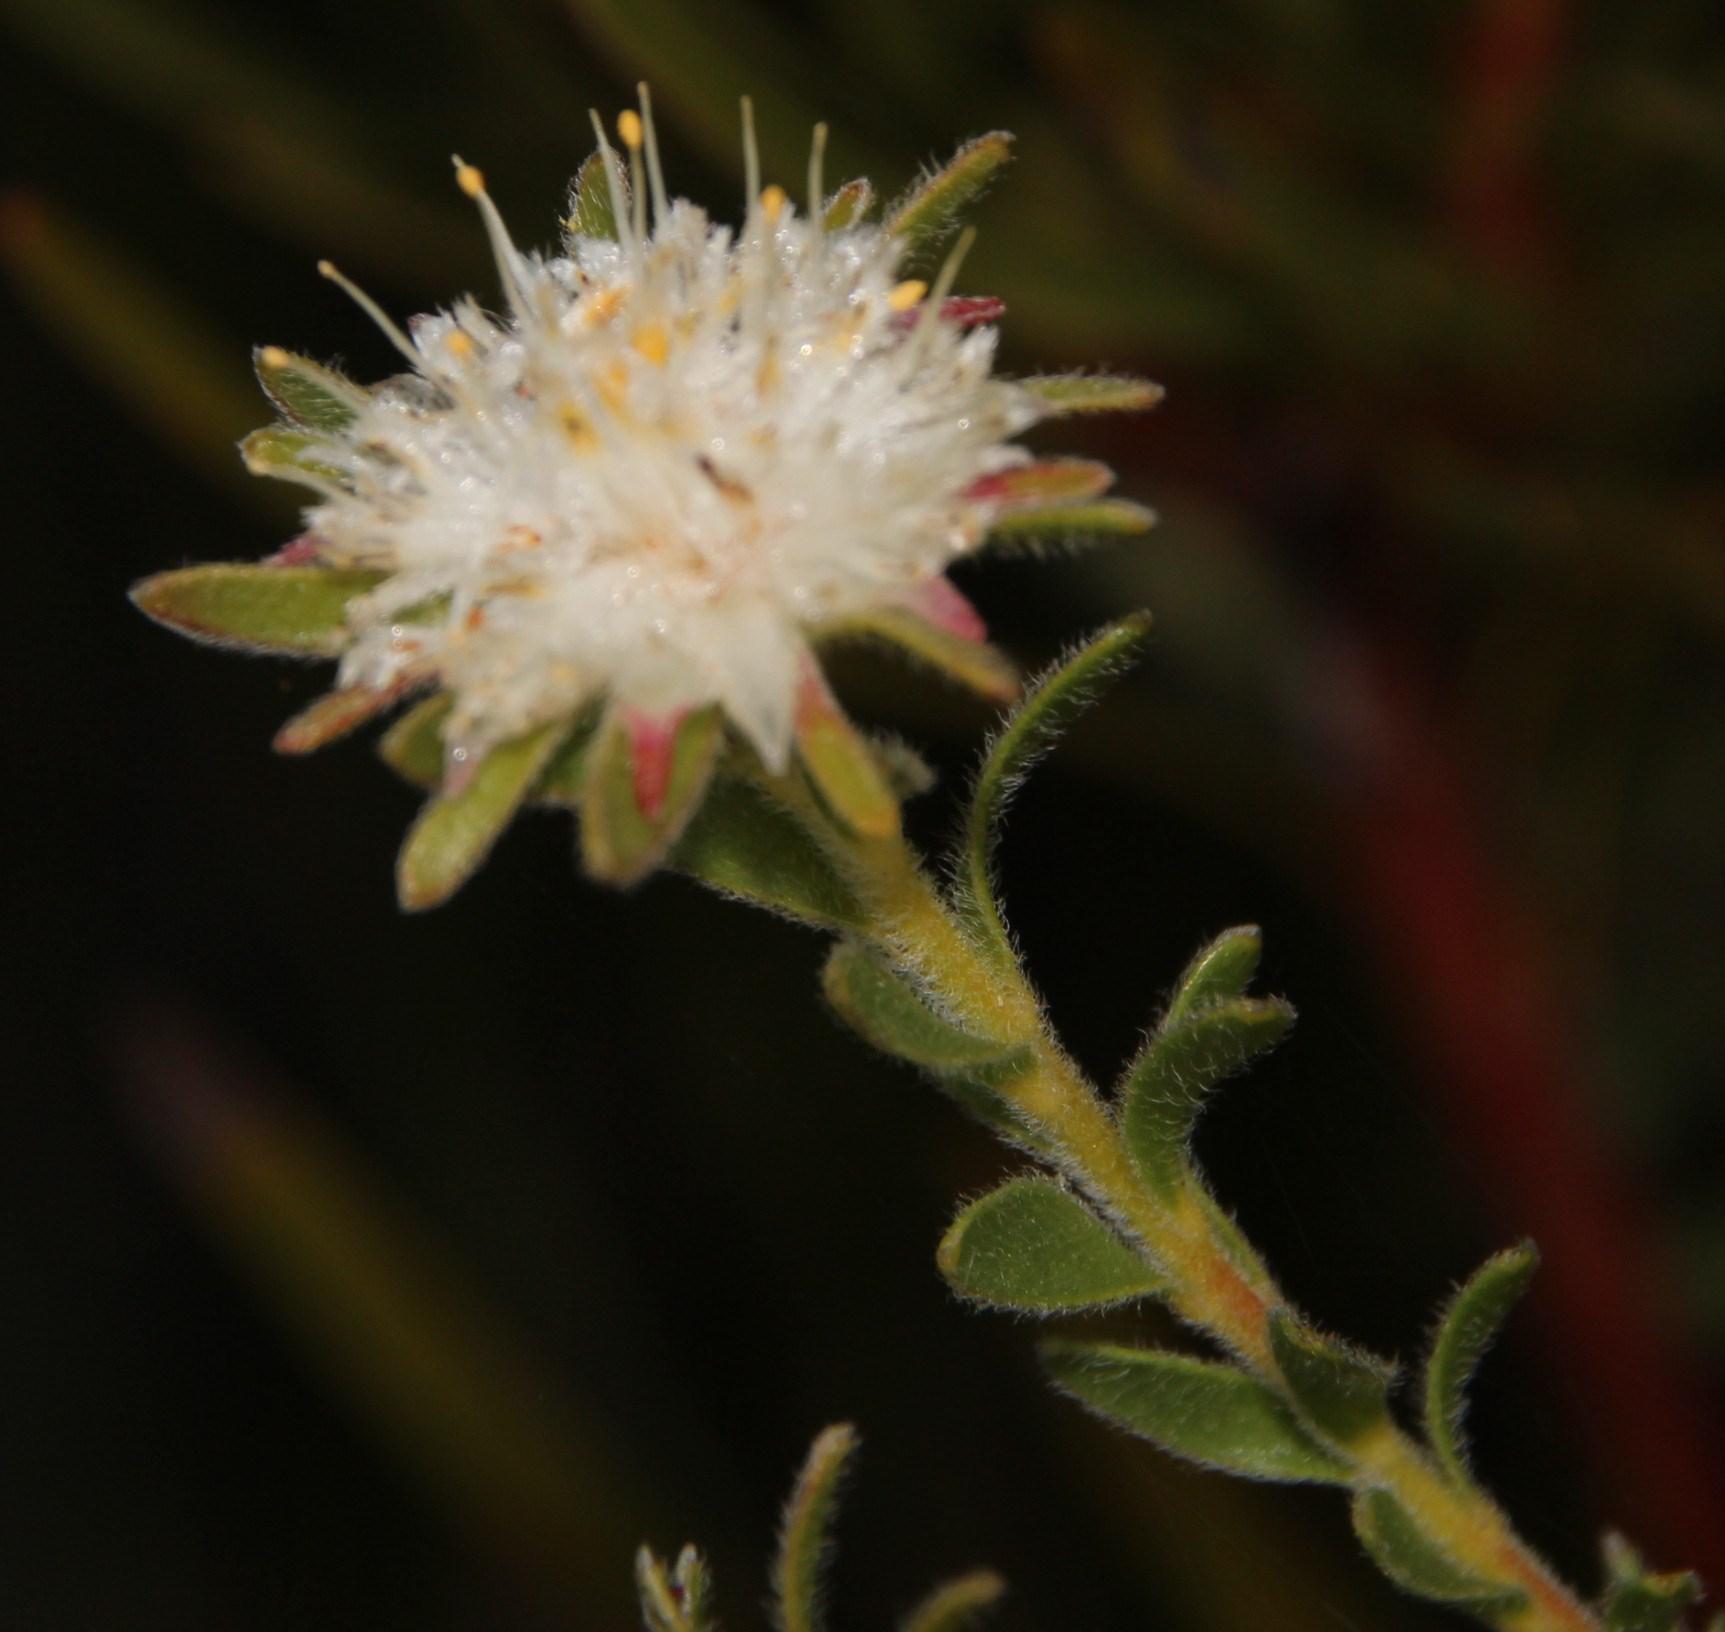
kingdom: Plantae
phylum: Tracheophyta
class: Magnoliopsida
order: Proteales
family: Proteaceae
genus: Diastella
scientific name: Diastella fraterna
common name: Palmiet silkypuff
